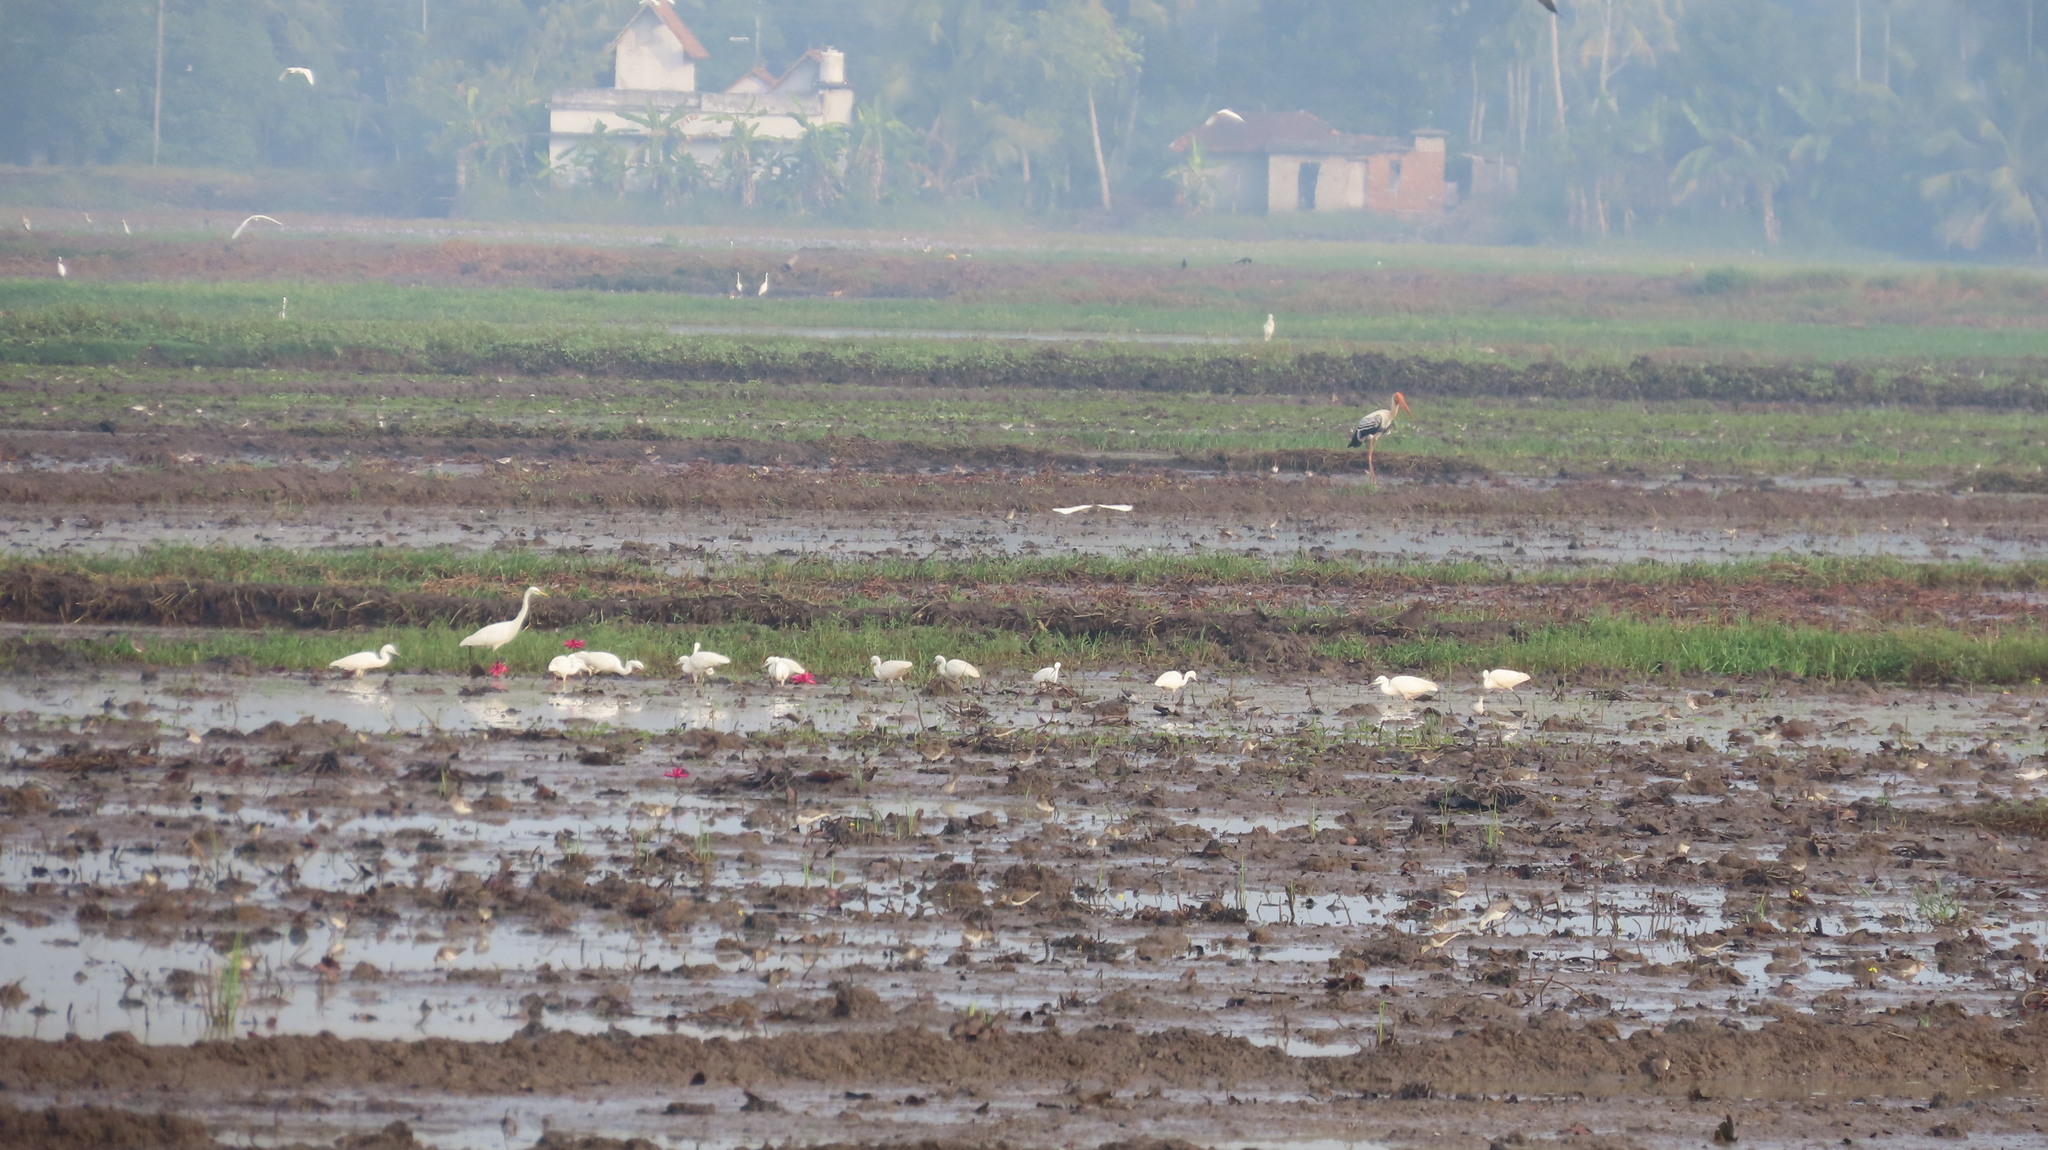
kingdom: Animalia
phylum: Chordata
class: Aves
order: Ciconiiformes
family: Ciconiidae
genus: Mycteria
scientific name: Mycteria leucocephala
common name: Painted stork
